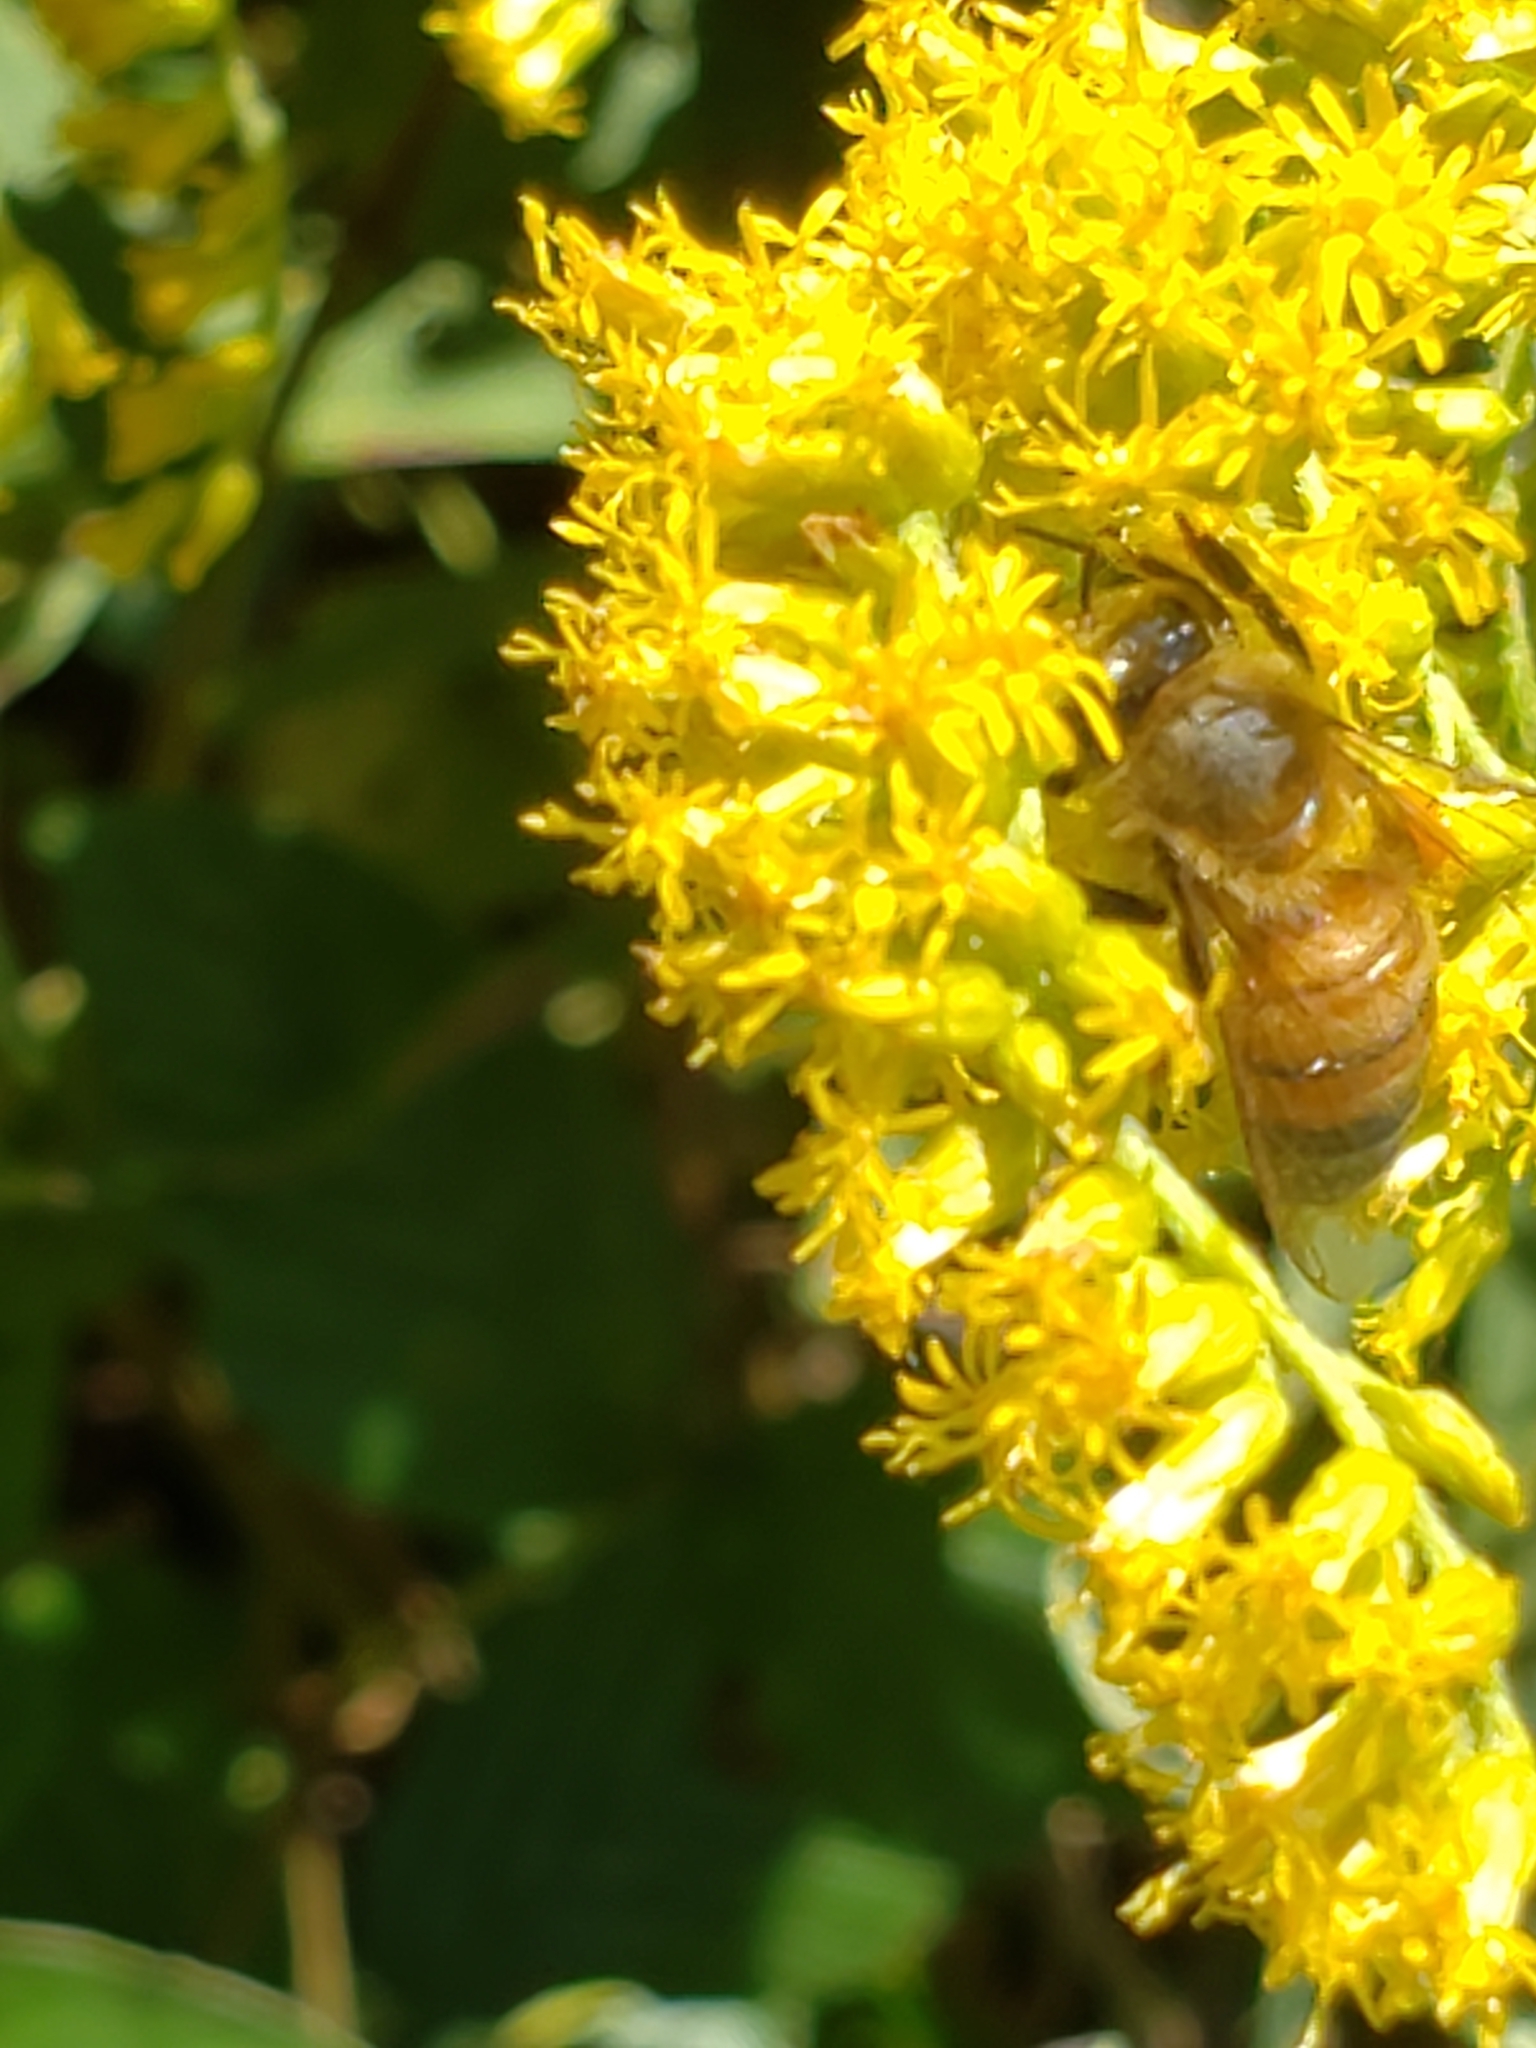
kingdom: Animalia
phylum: Arthropoda
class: Insecta
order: Hymenoptera
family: Apidae
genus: Apis
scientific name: Apis mellifera
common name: Honey bee
